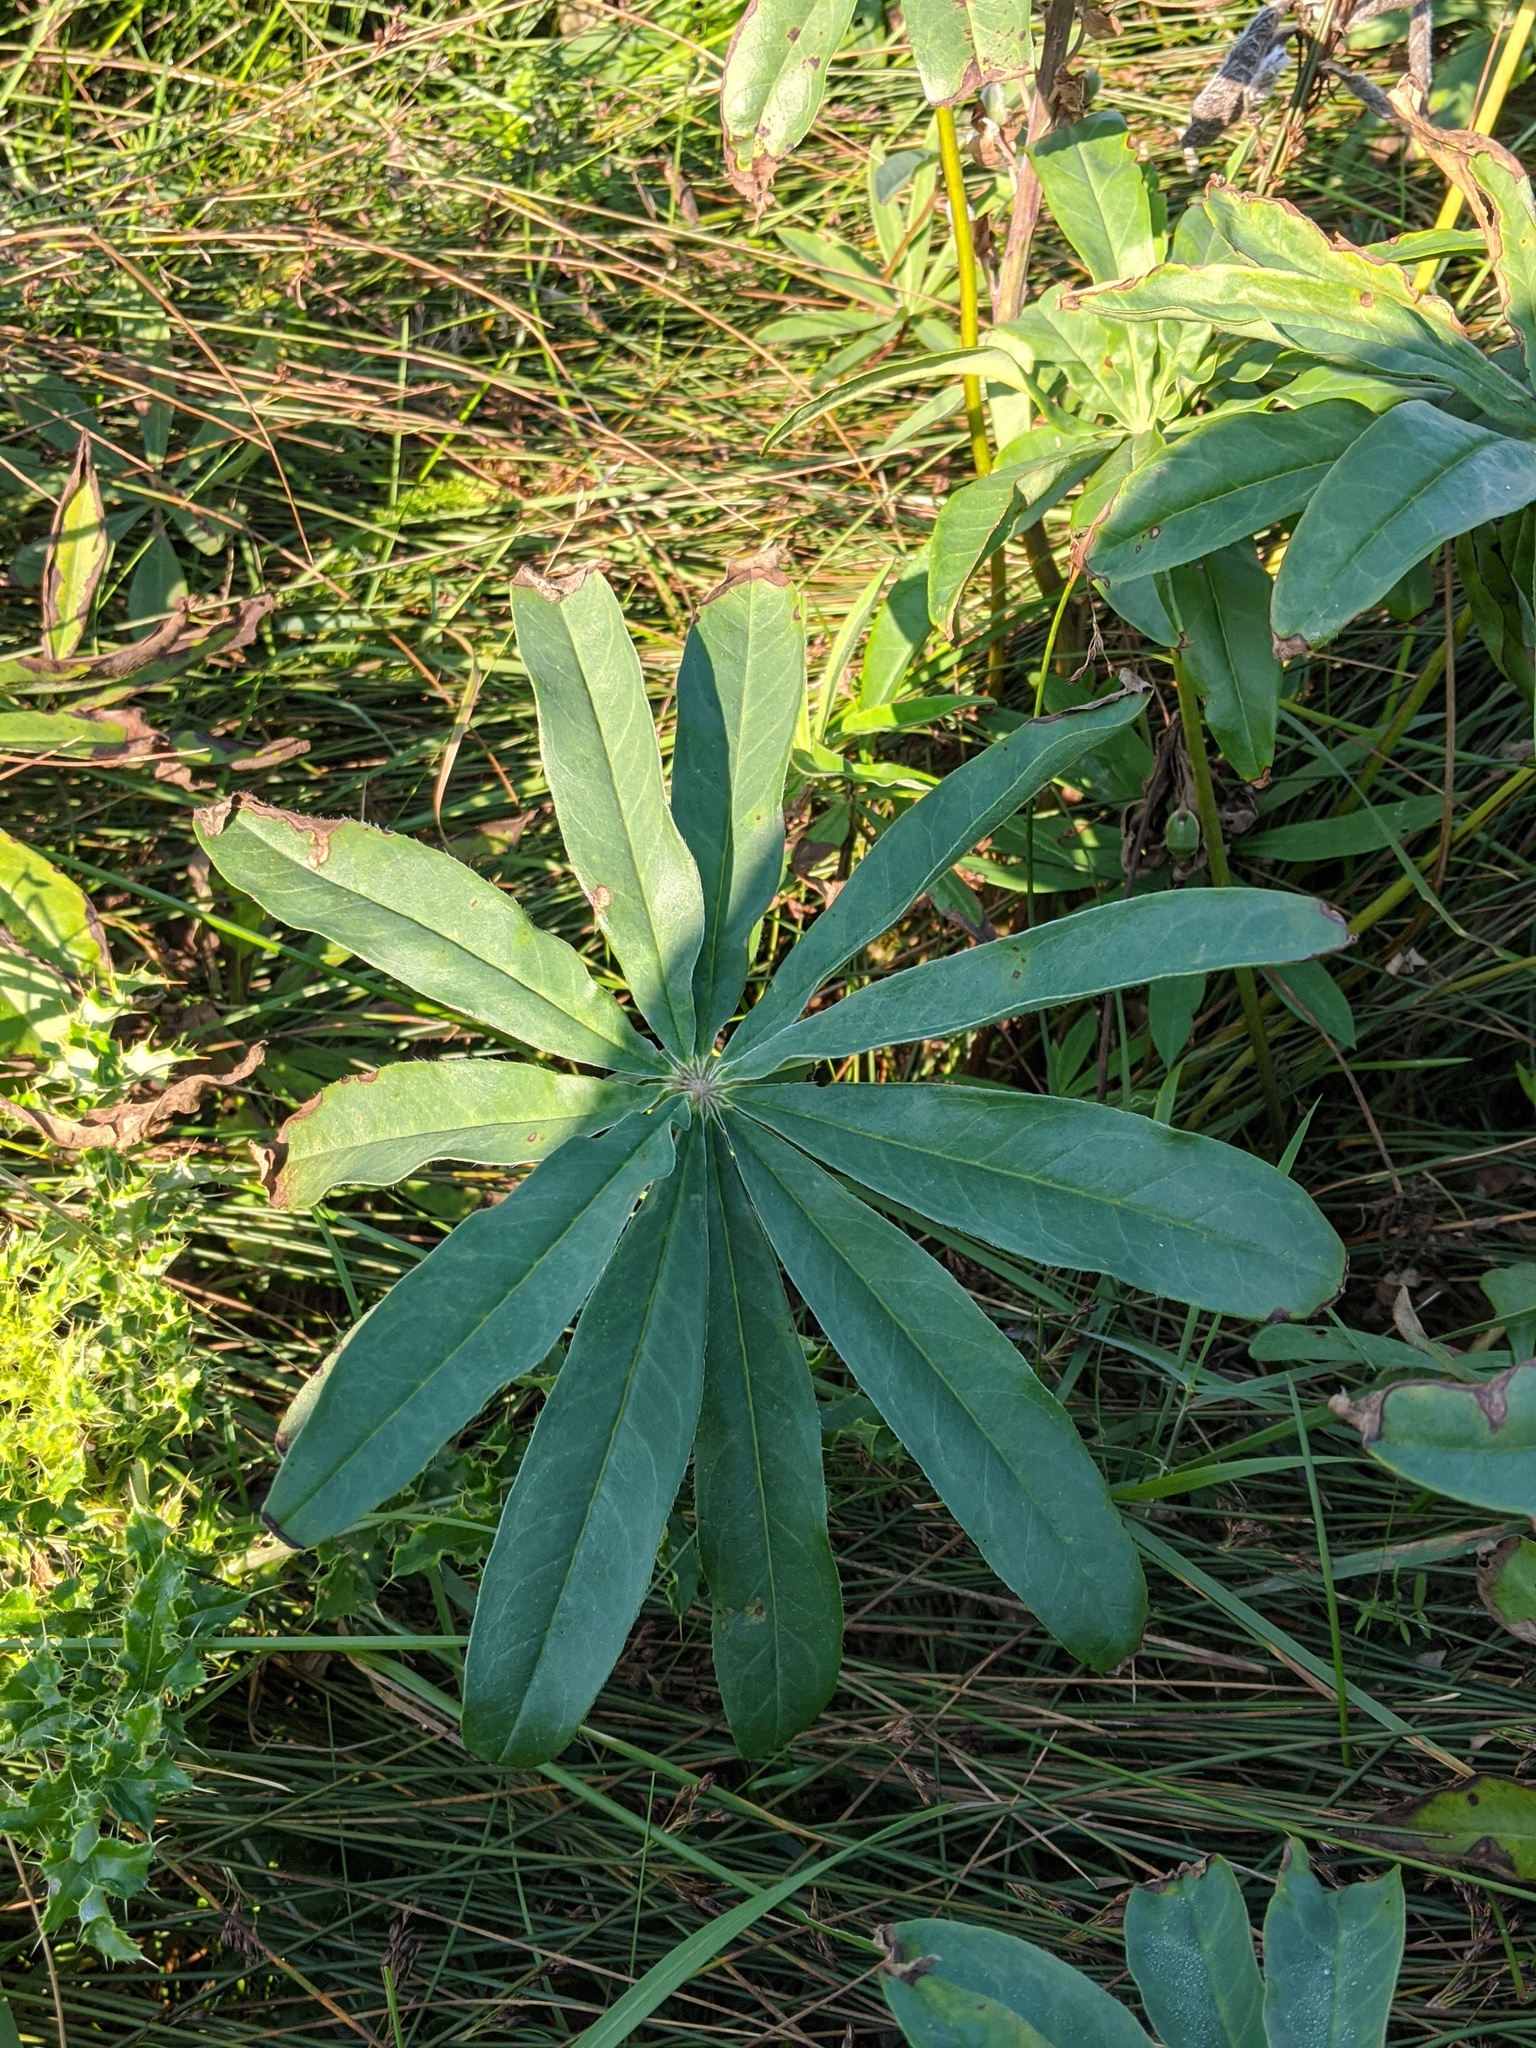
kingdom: Plantae
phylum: Tracheophyta
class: Magnoliopsida
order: Fabales
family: Fabaceae
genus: Lupinus
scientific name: Lupinus polyphyllus
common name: Garden lupin
